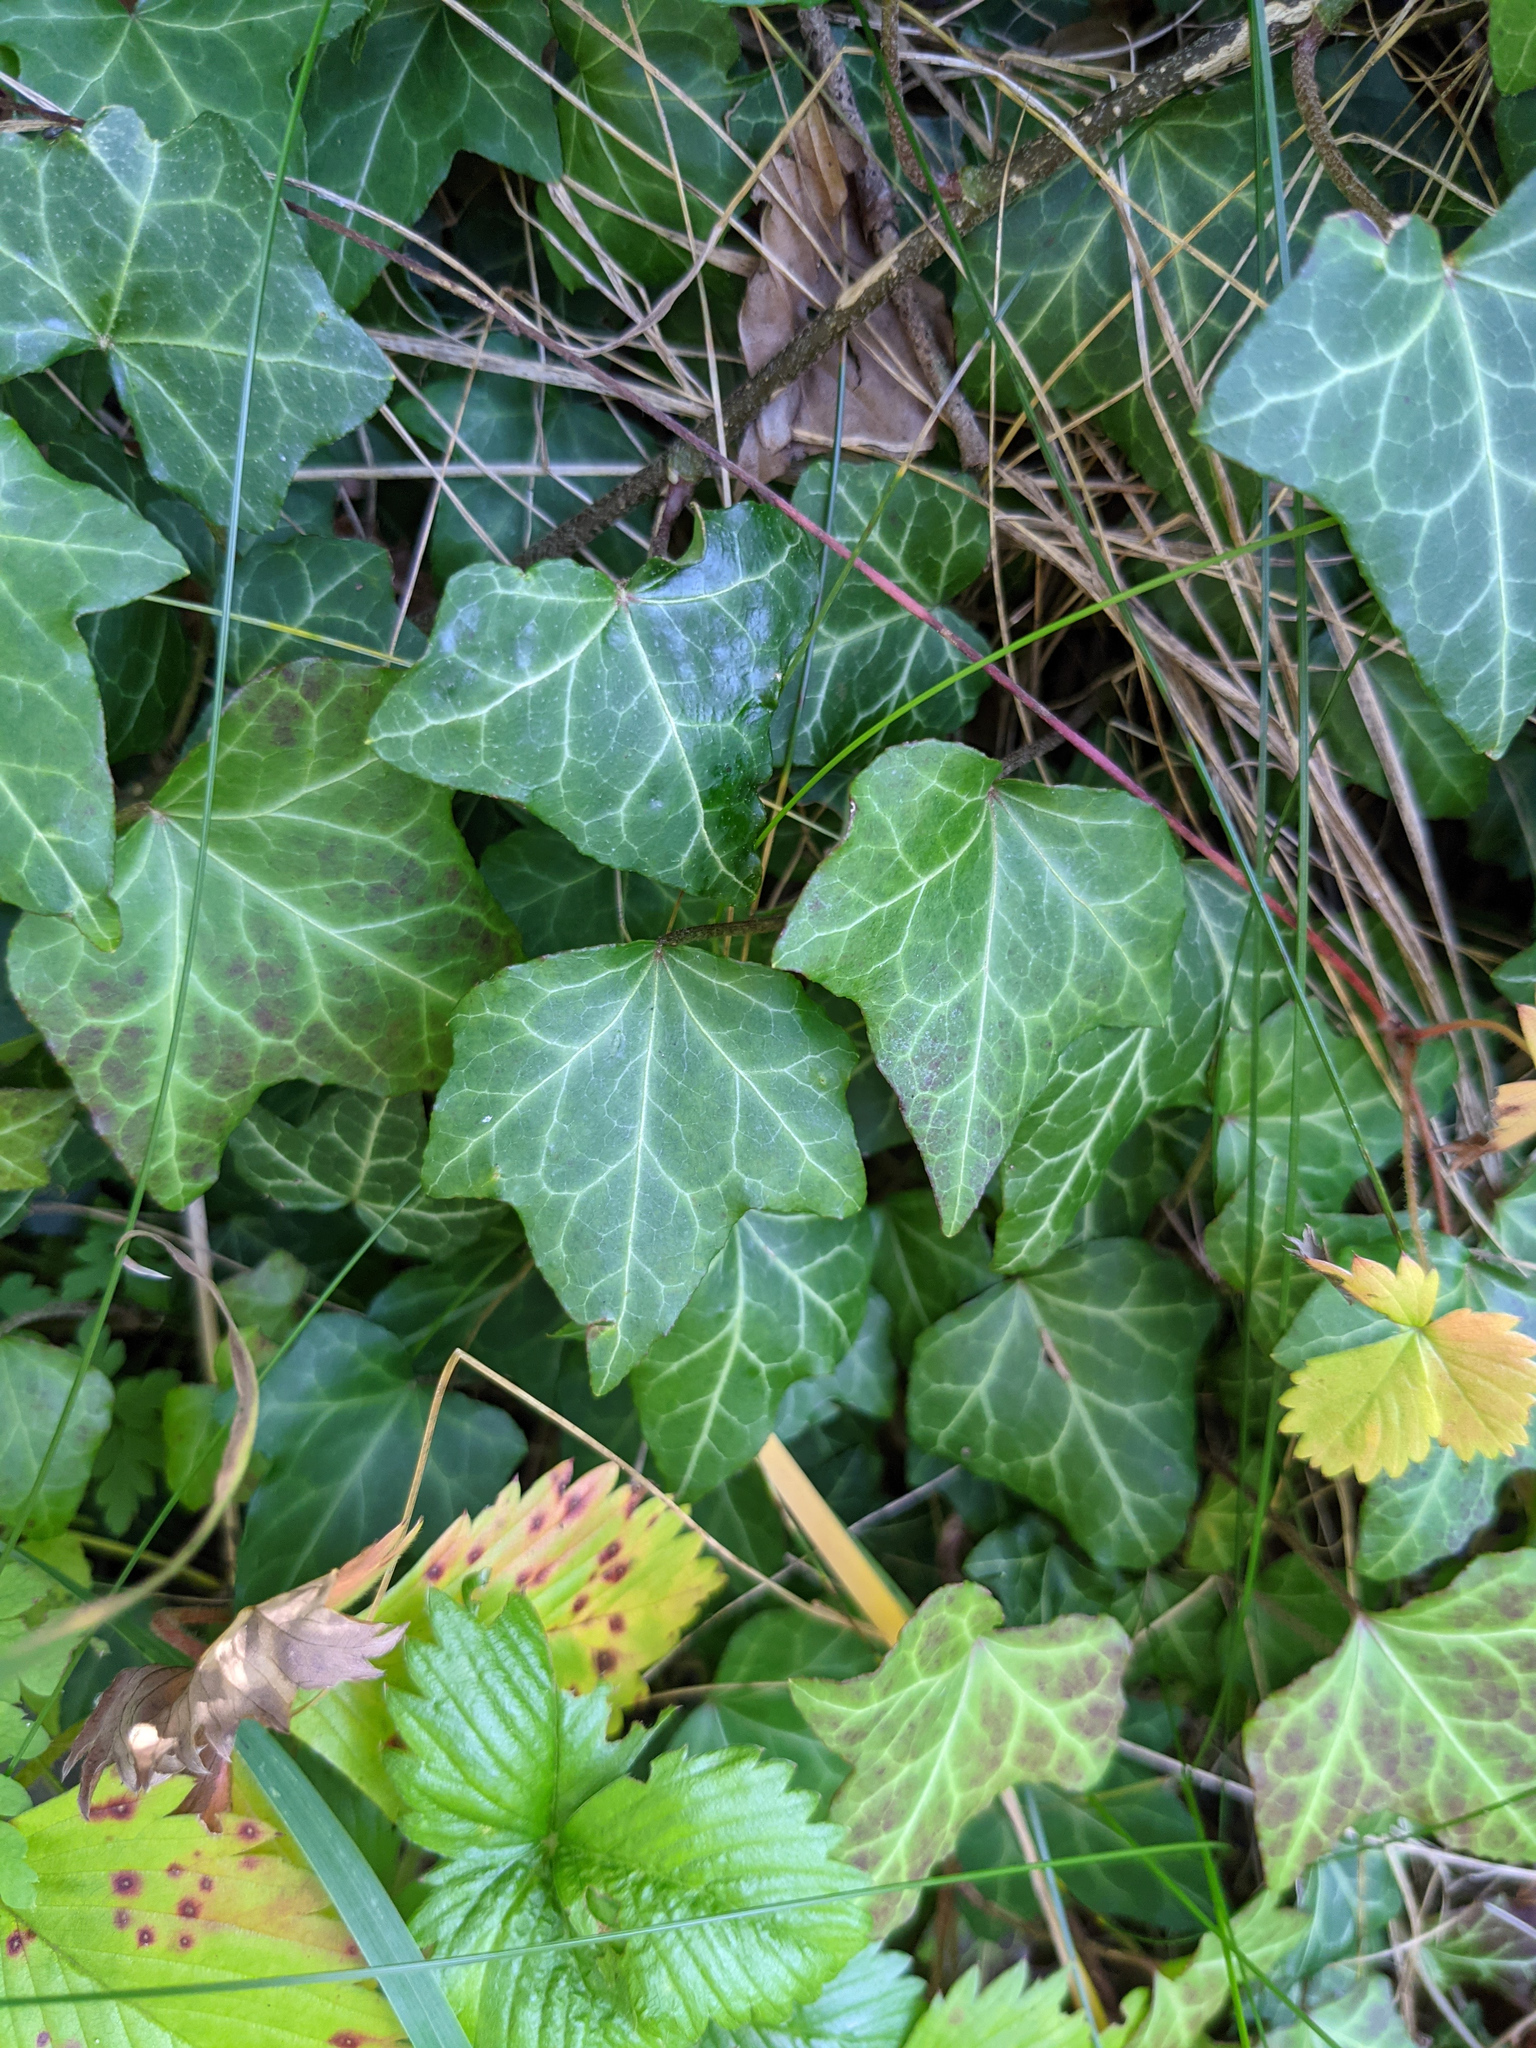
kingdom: Plantae
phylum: Tracheophyta
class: Magnoliopsida
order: Apiales
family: Araliaceae
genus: Hedera
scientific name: Hedera helix
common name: Ivy
